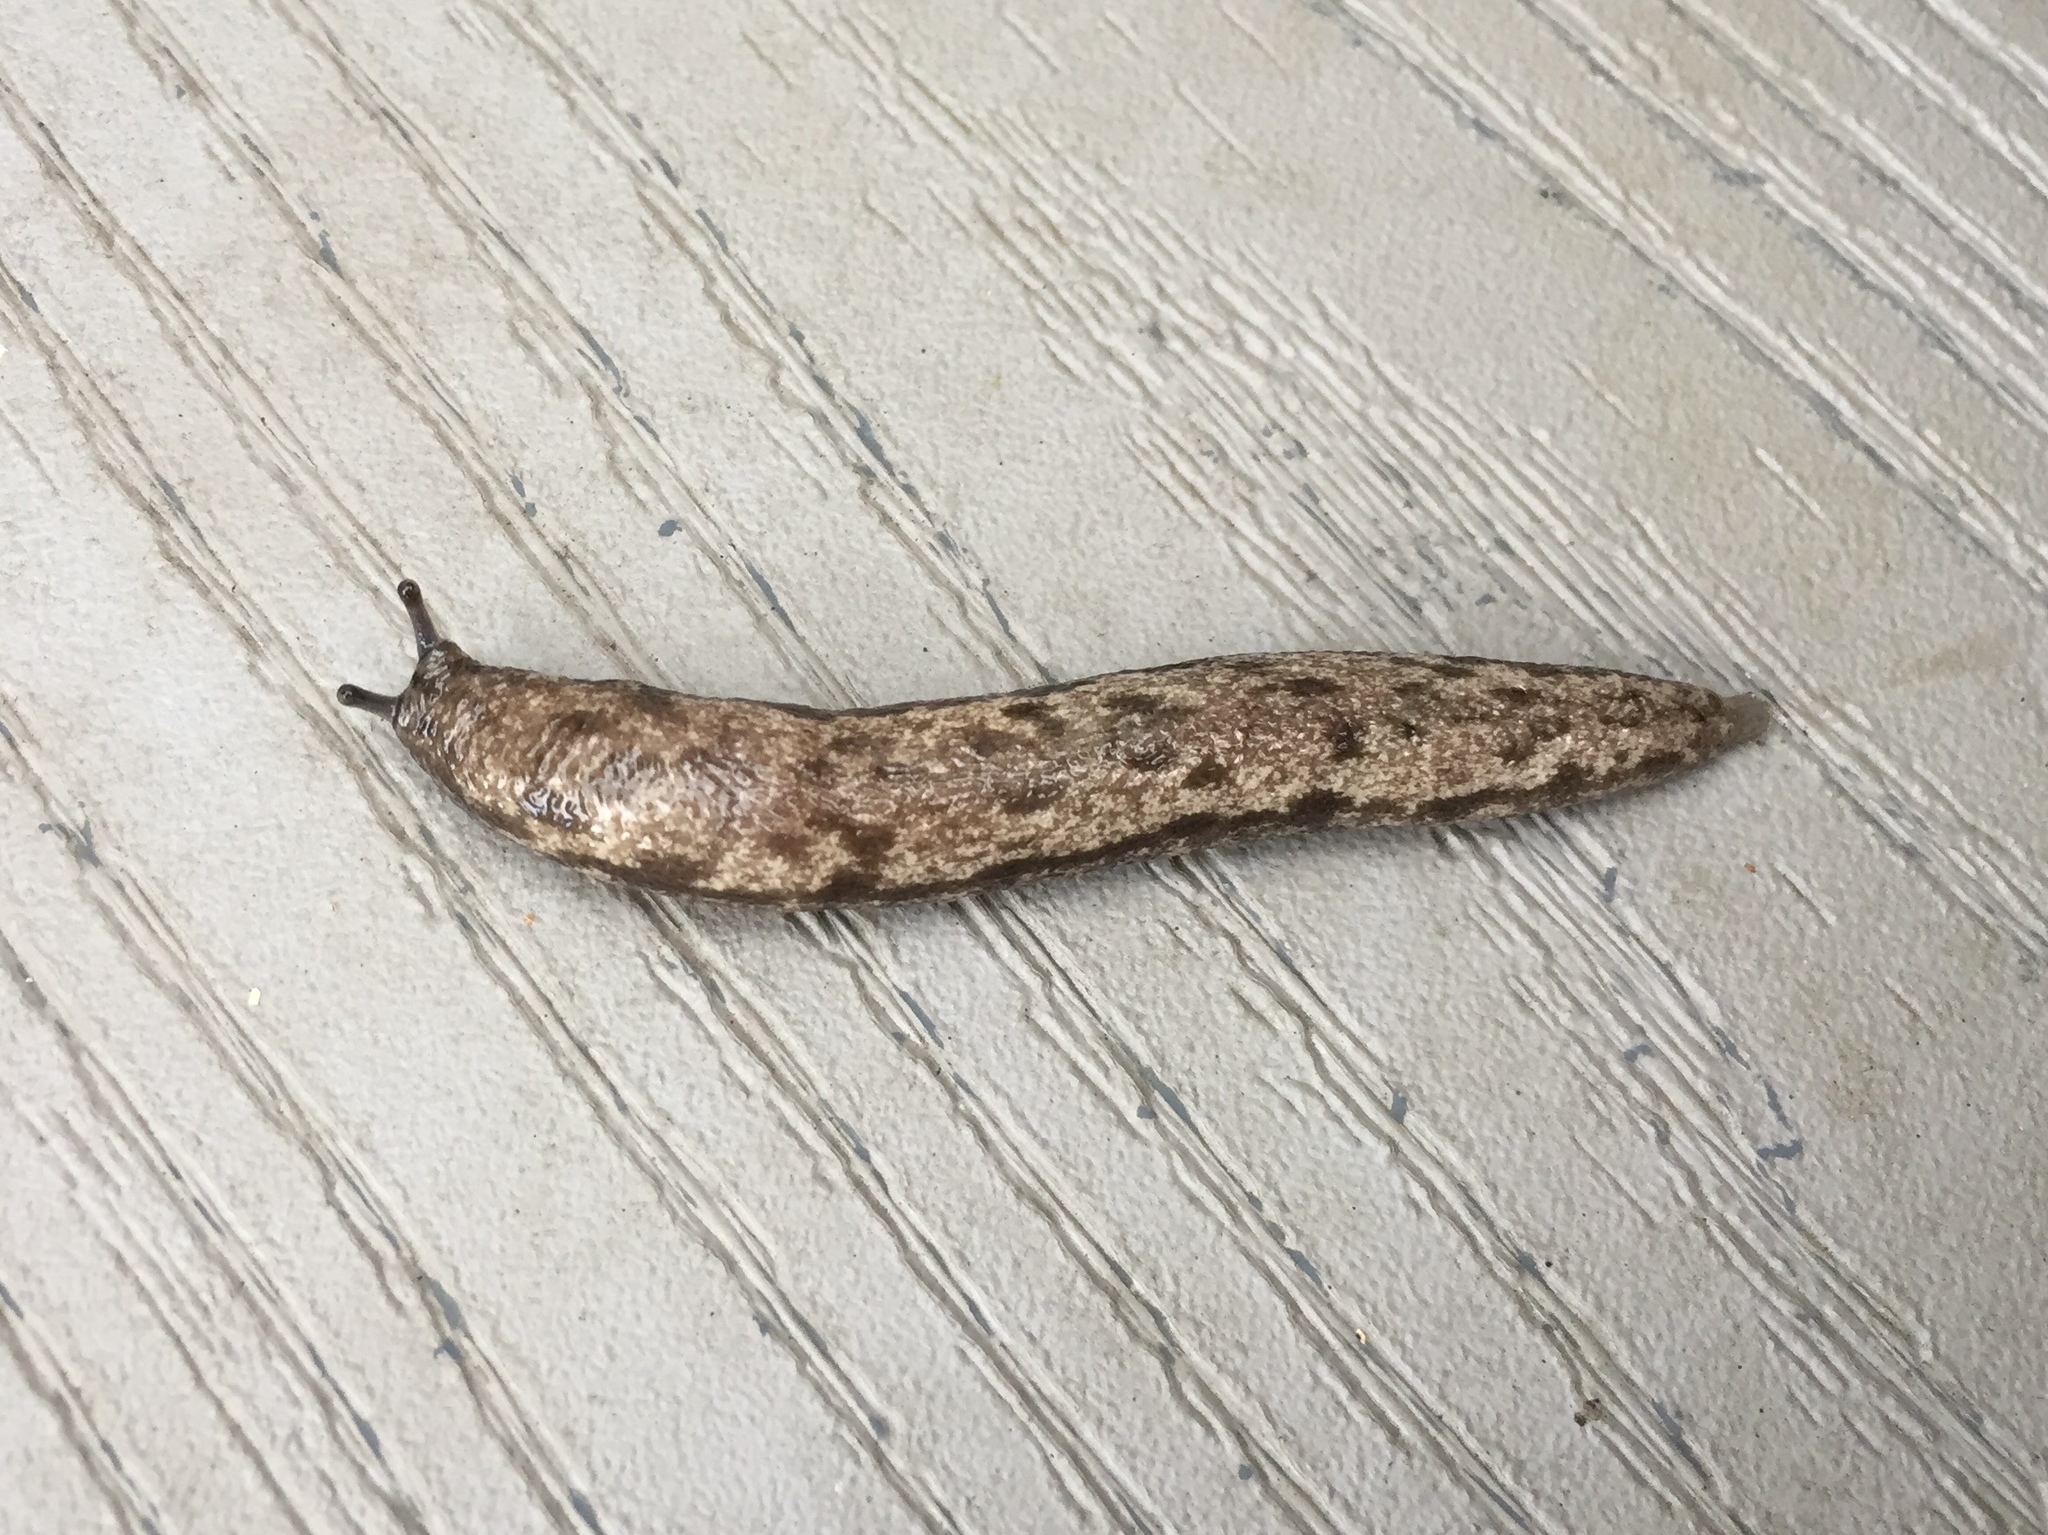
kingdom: Animalia
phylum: Mollusca
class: Gastropoda
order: Stylommatophora
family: Philomycidae
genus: Megapallifera
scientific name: Megapallifera mutabilis
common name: Changeable mantleslug
